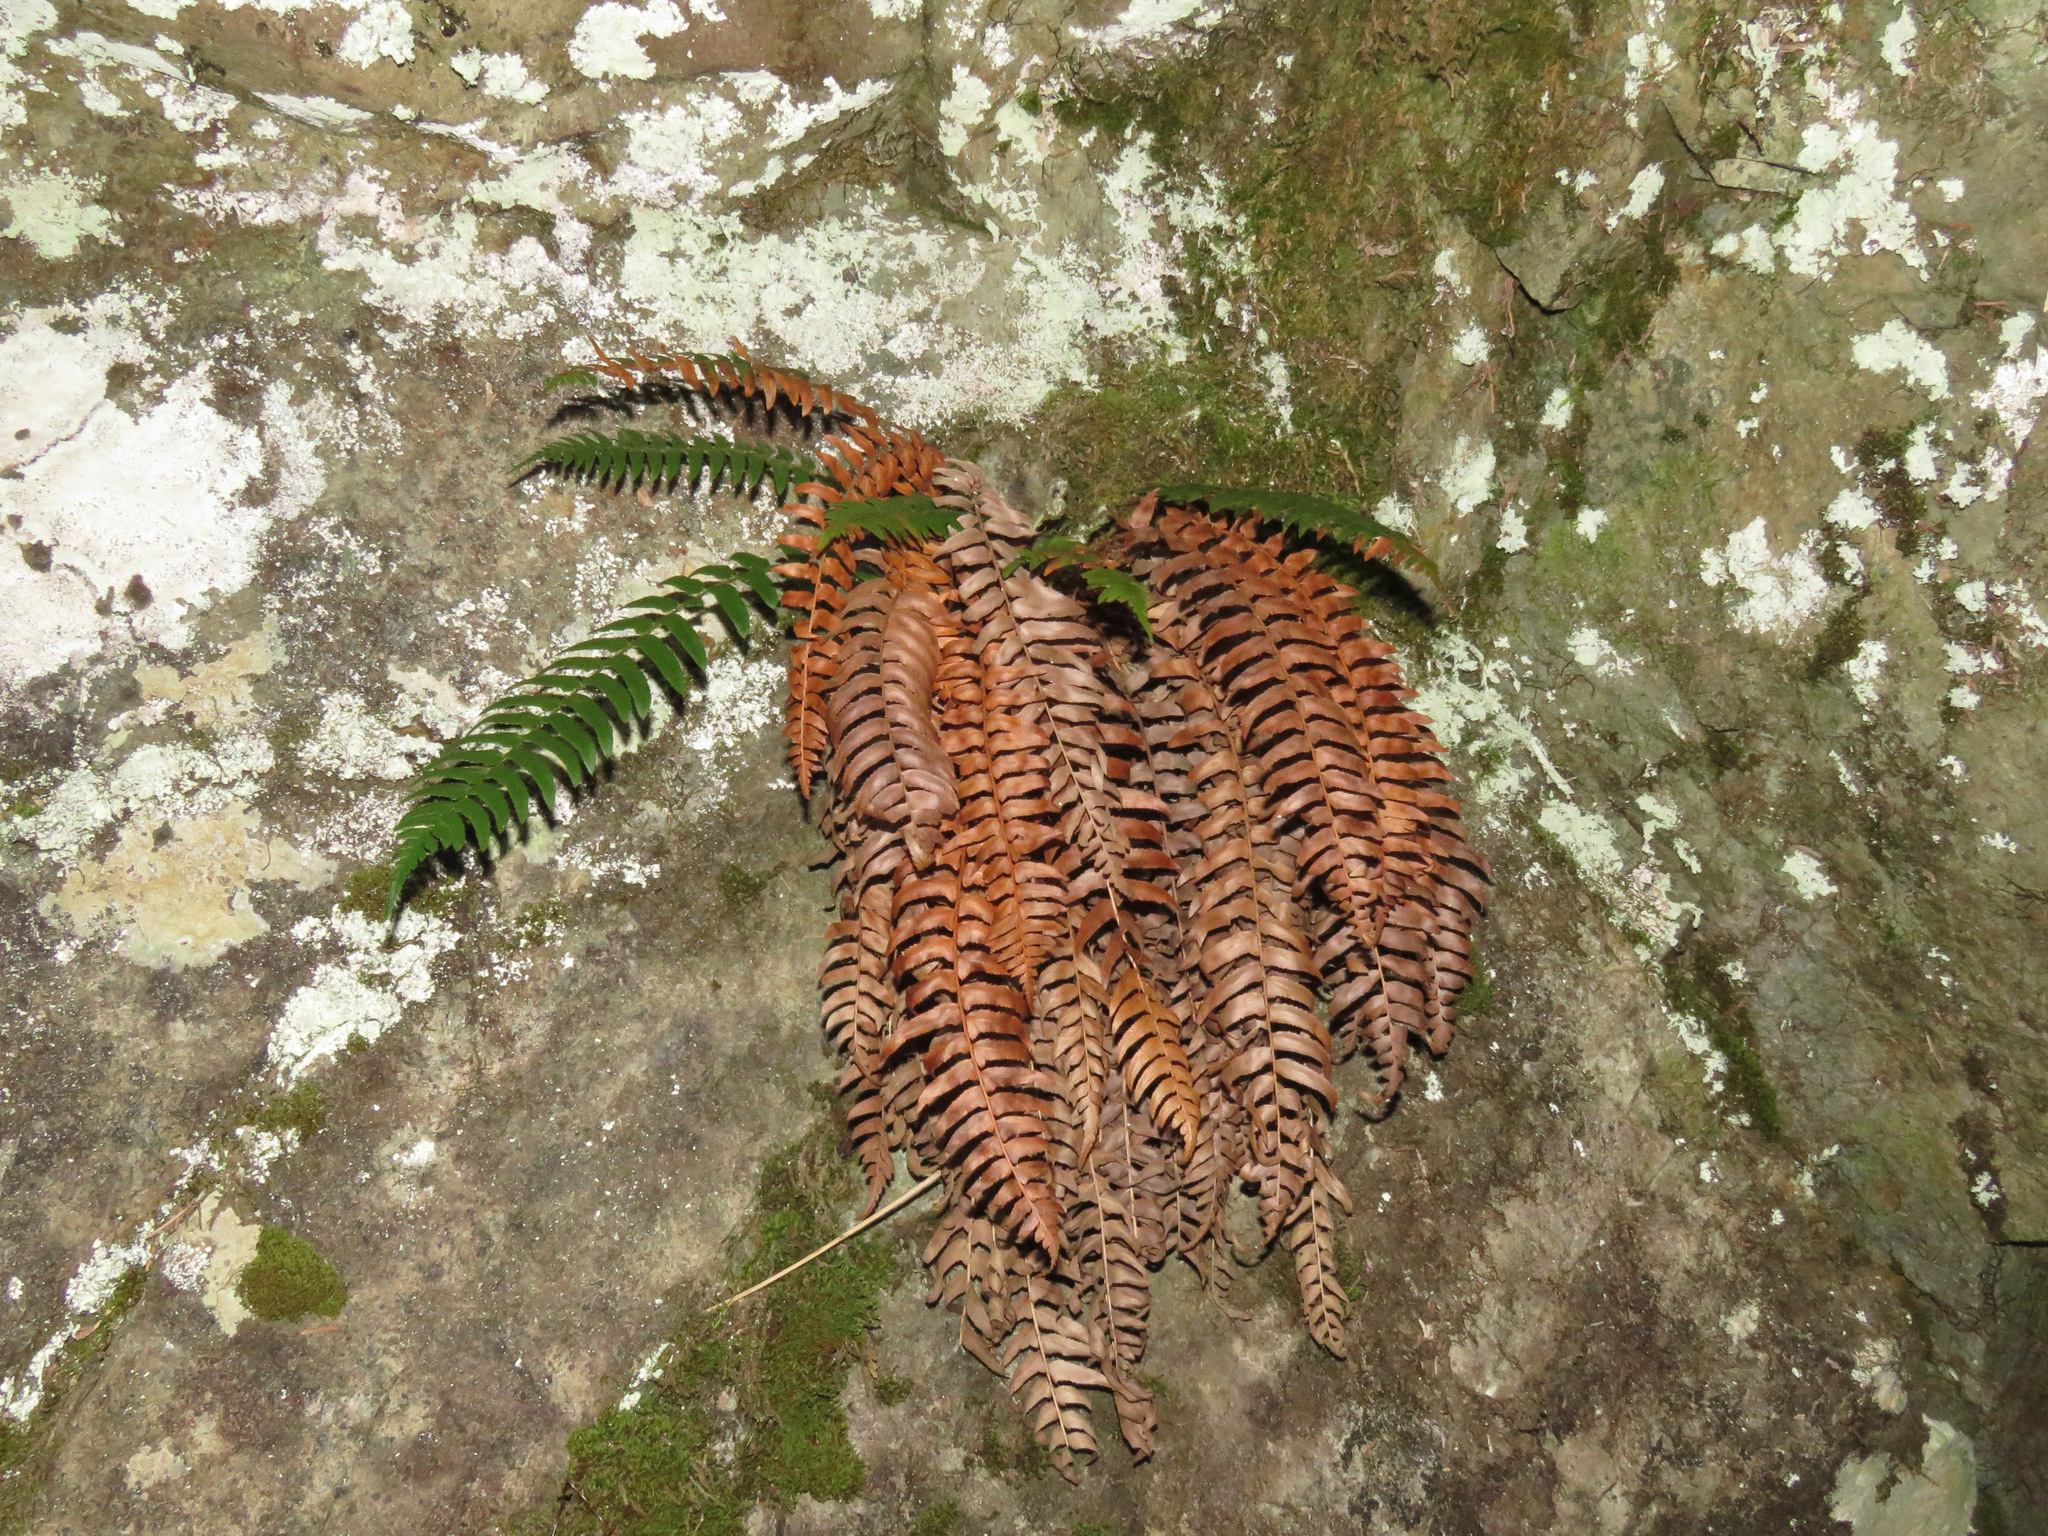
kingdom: Plantae
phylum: Tracheophyta
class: Polypodiopsida
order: Polypodiales
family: Dryopteridaceae
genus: Polystichum
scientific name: Polystichum munitum
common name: Western sword-fern
